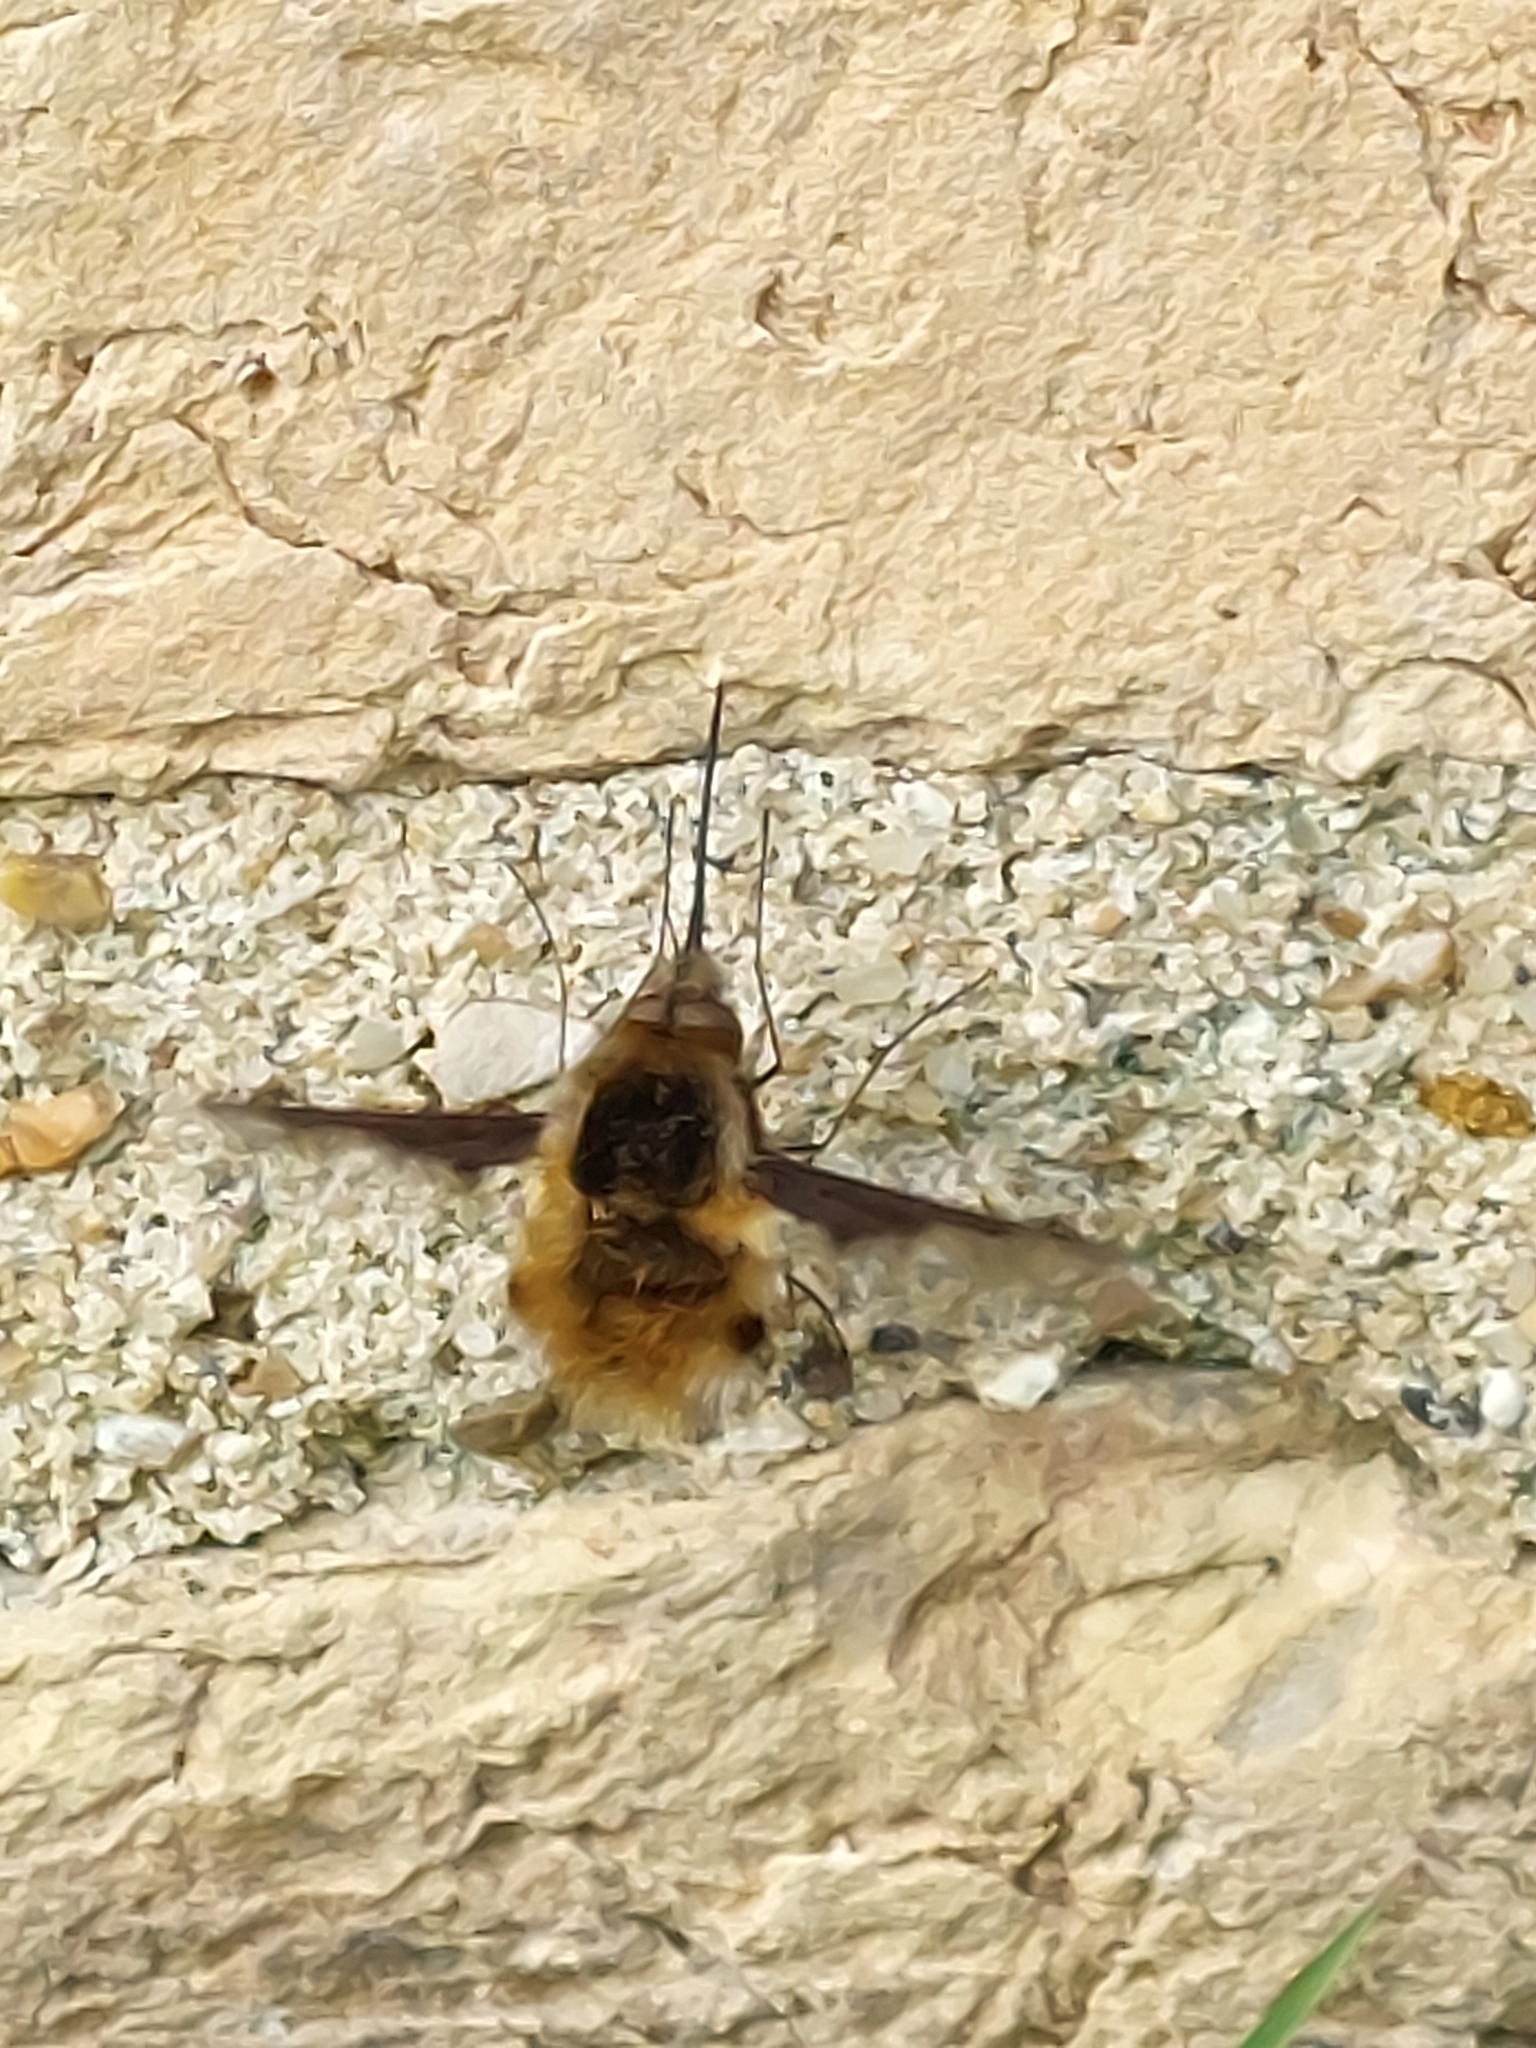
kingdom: Animalia
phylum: Arthropoda
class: Insecta
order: Diptera
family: Bombyliidae
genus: Bombylius
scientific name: Bombylius major
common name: Bee fly
